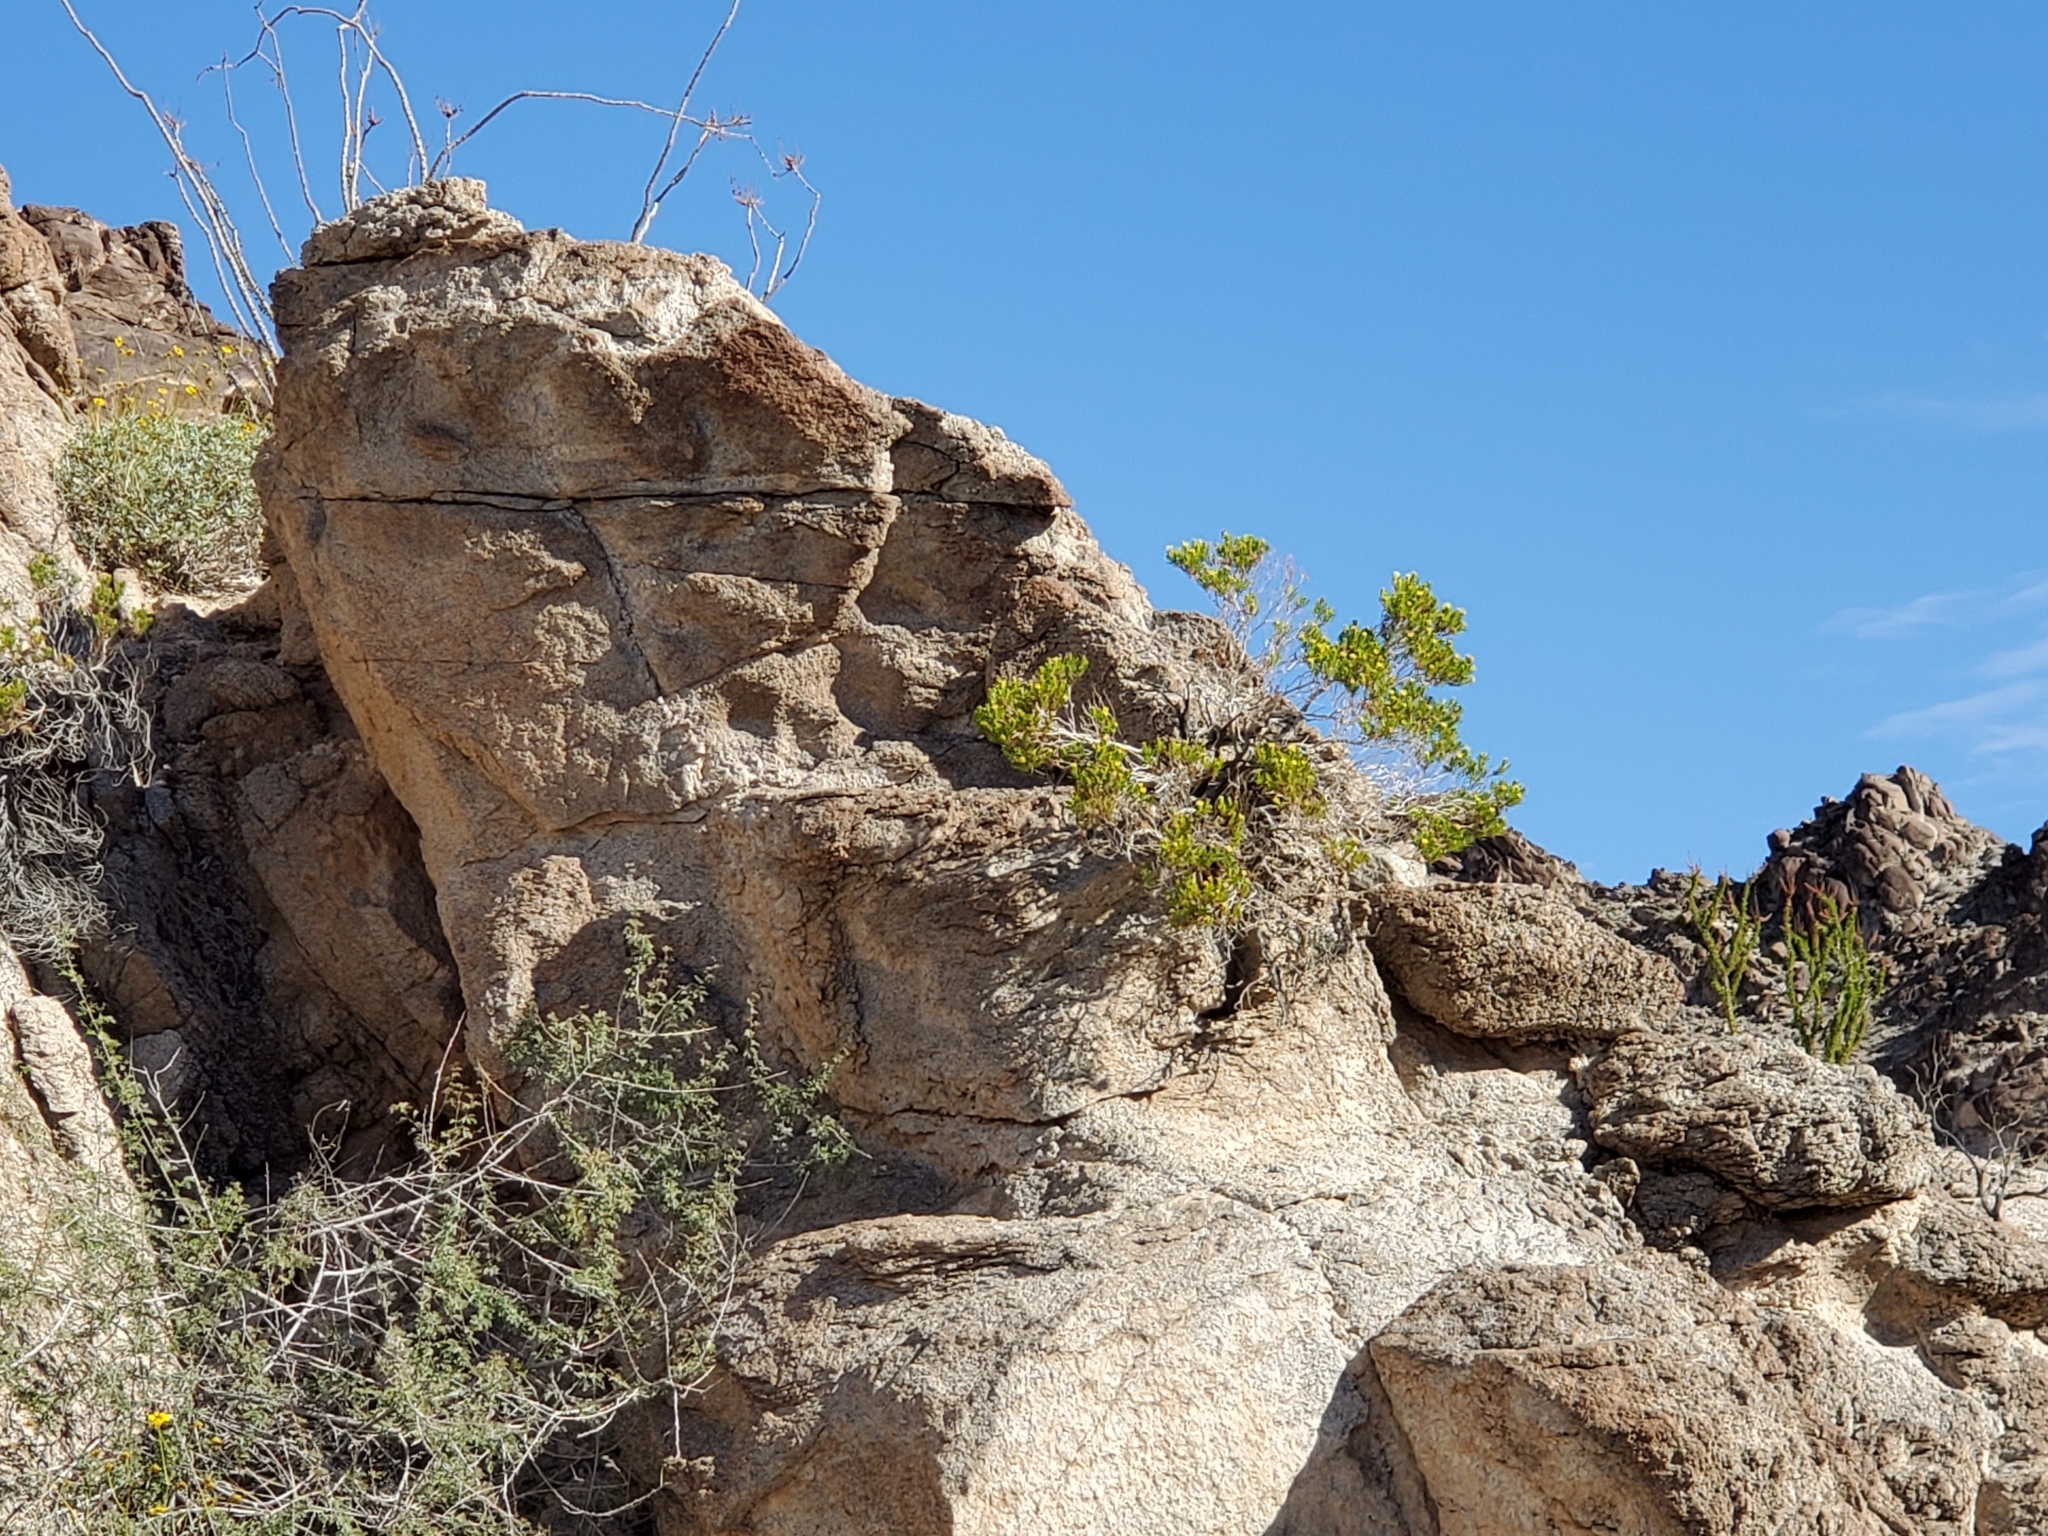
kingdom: Plantae
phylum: Tracheophyta
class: Magnoliopsida
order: Asterales
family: Asteraceae
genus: Peucephyllum
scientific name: Peucephyllum schottii
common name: Pygmy-cedar
